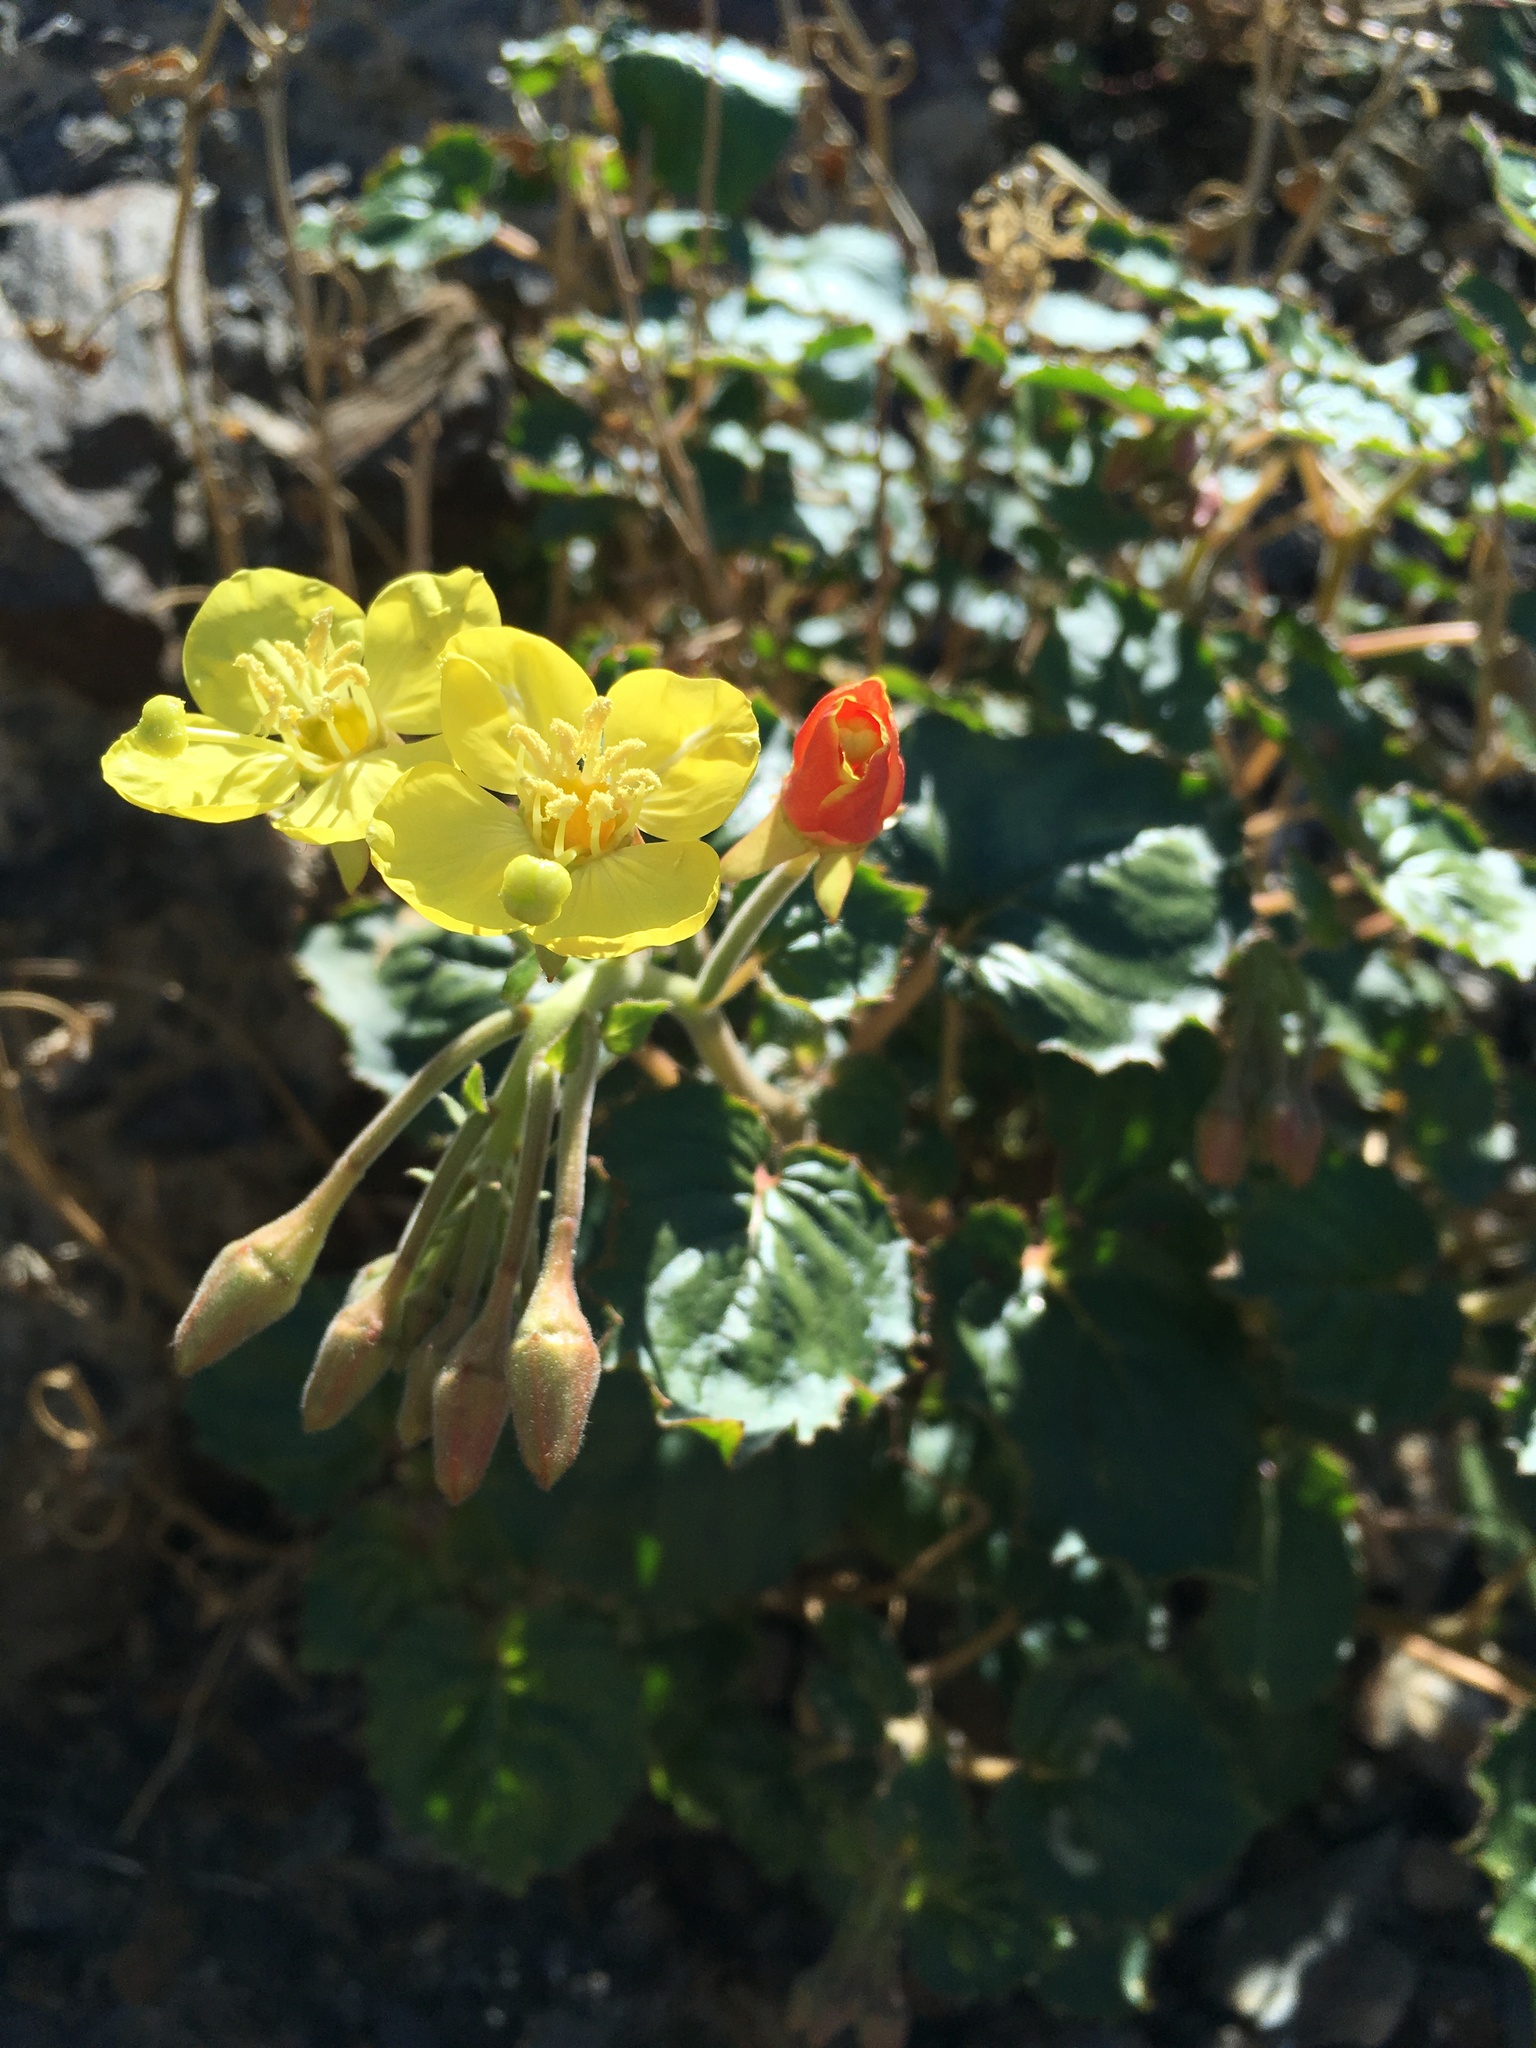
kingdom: Plantae
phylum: Tracheophyta
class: Magnoliopsida
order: Myrtales
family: Onagraceae
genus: Chylismia
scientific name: Chylismia cardiophylla
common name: Heartleaf suncup
